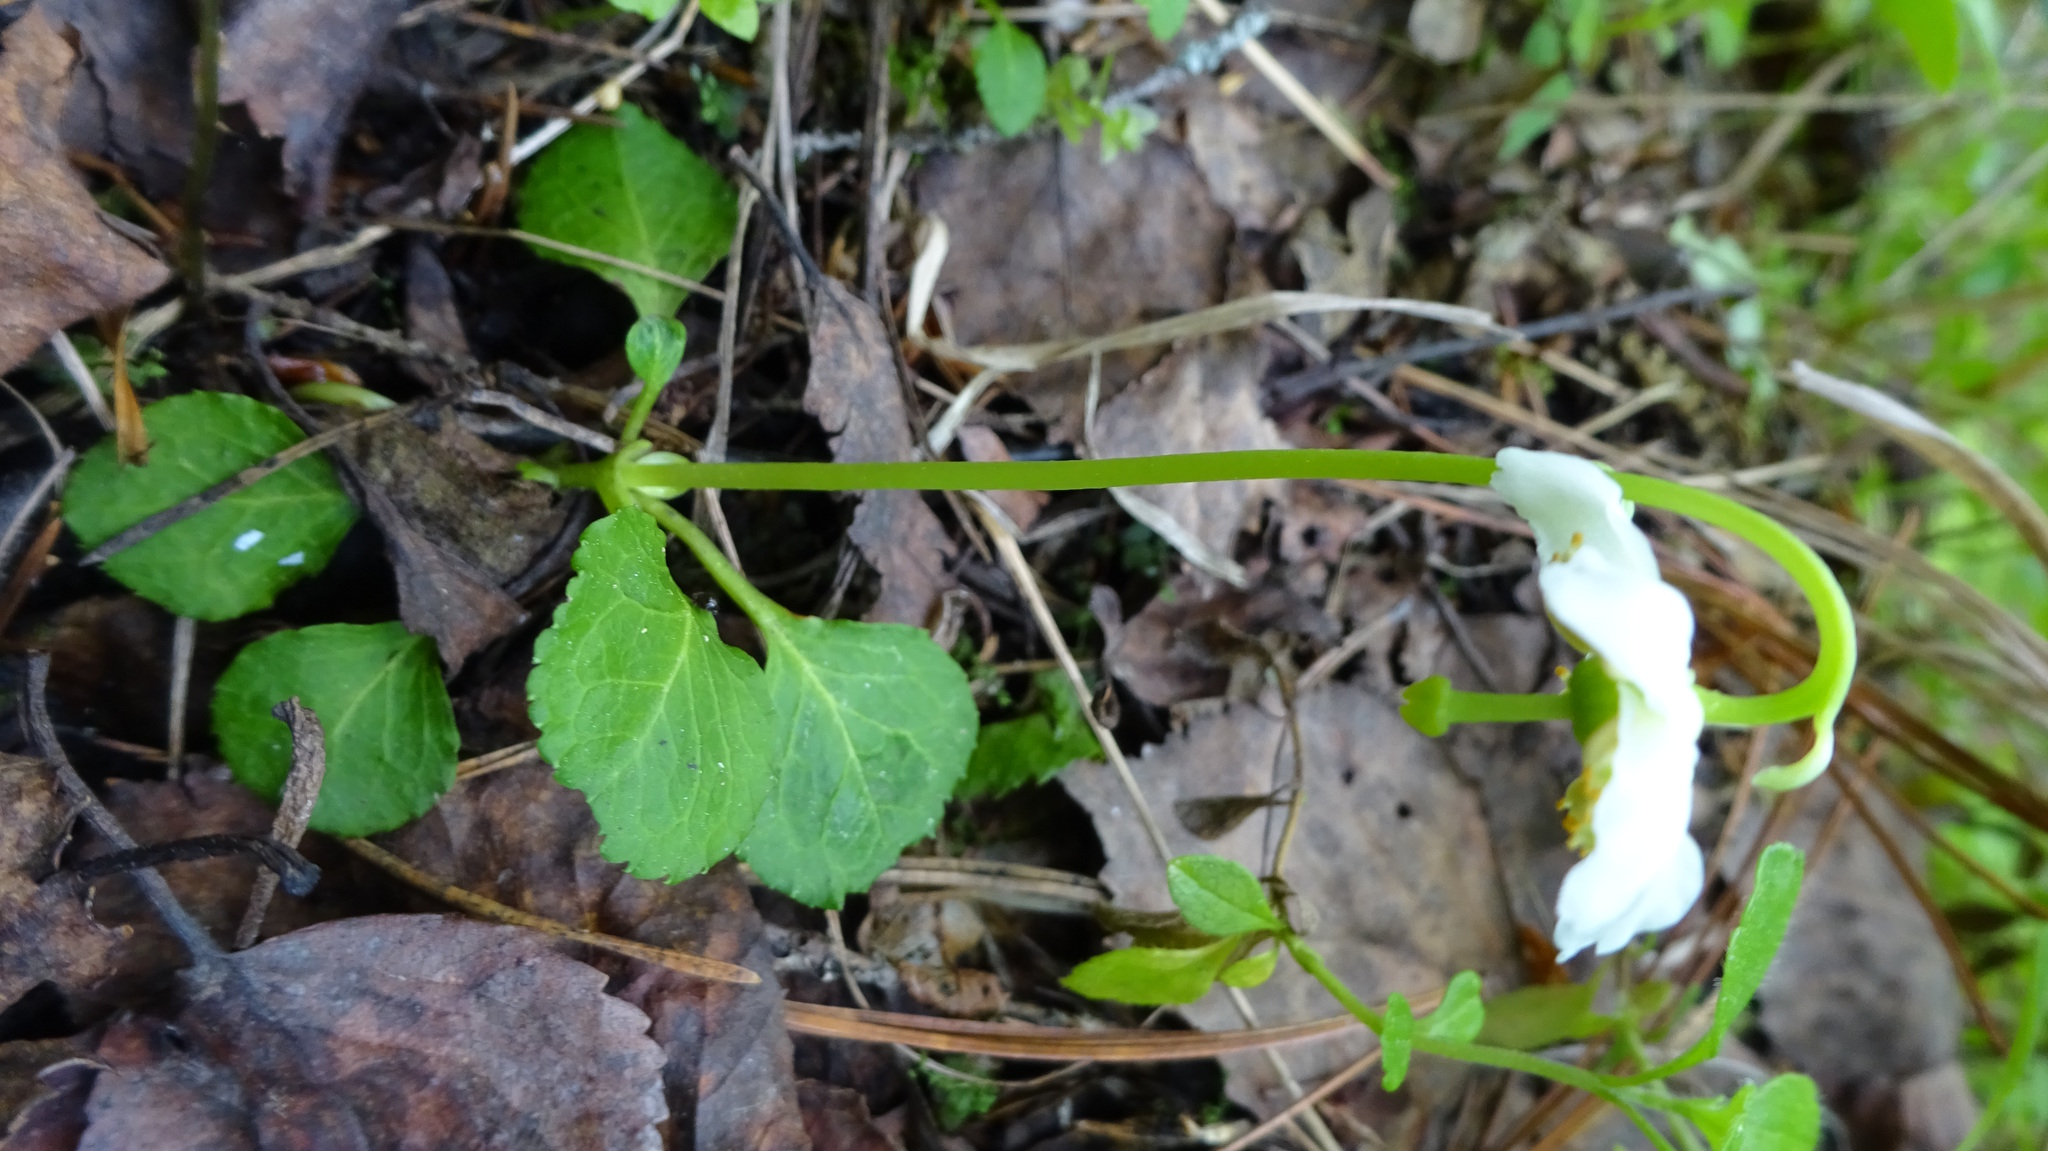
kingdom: Plantae
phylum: Tracheophyta
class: Magnoliopsida
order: Ericales
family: Ericaceae
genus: Moneses
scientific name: Moneses uniflora
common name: One-flowered wintergreen
